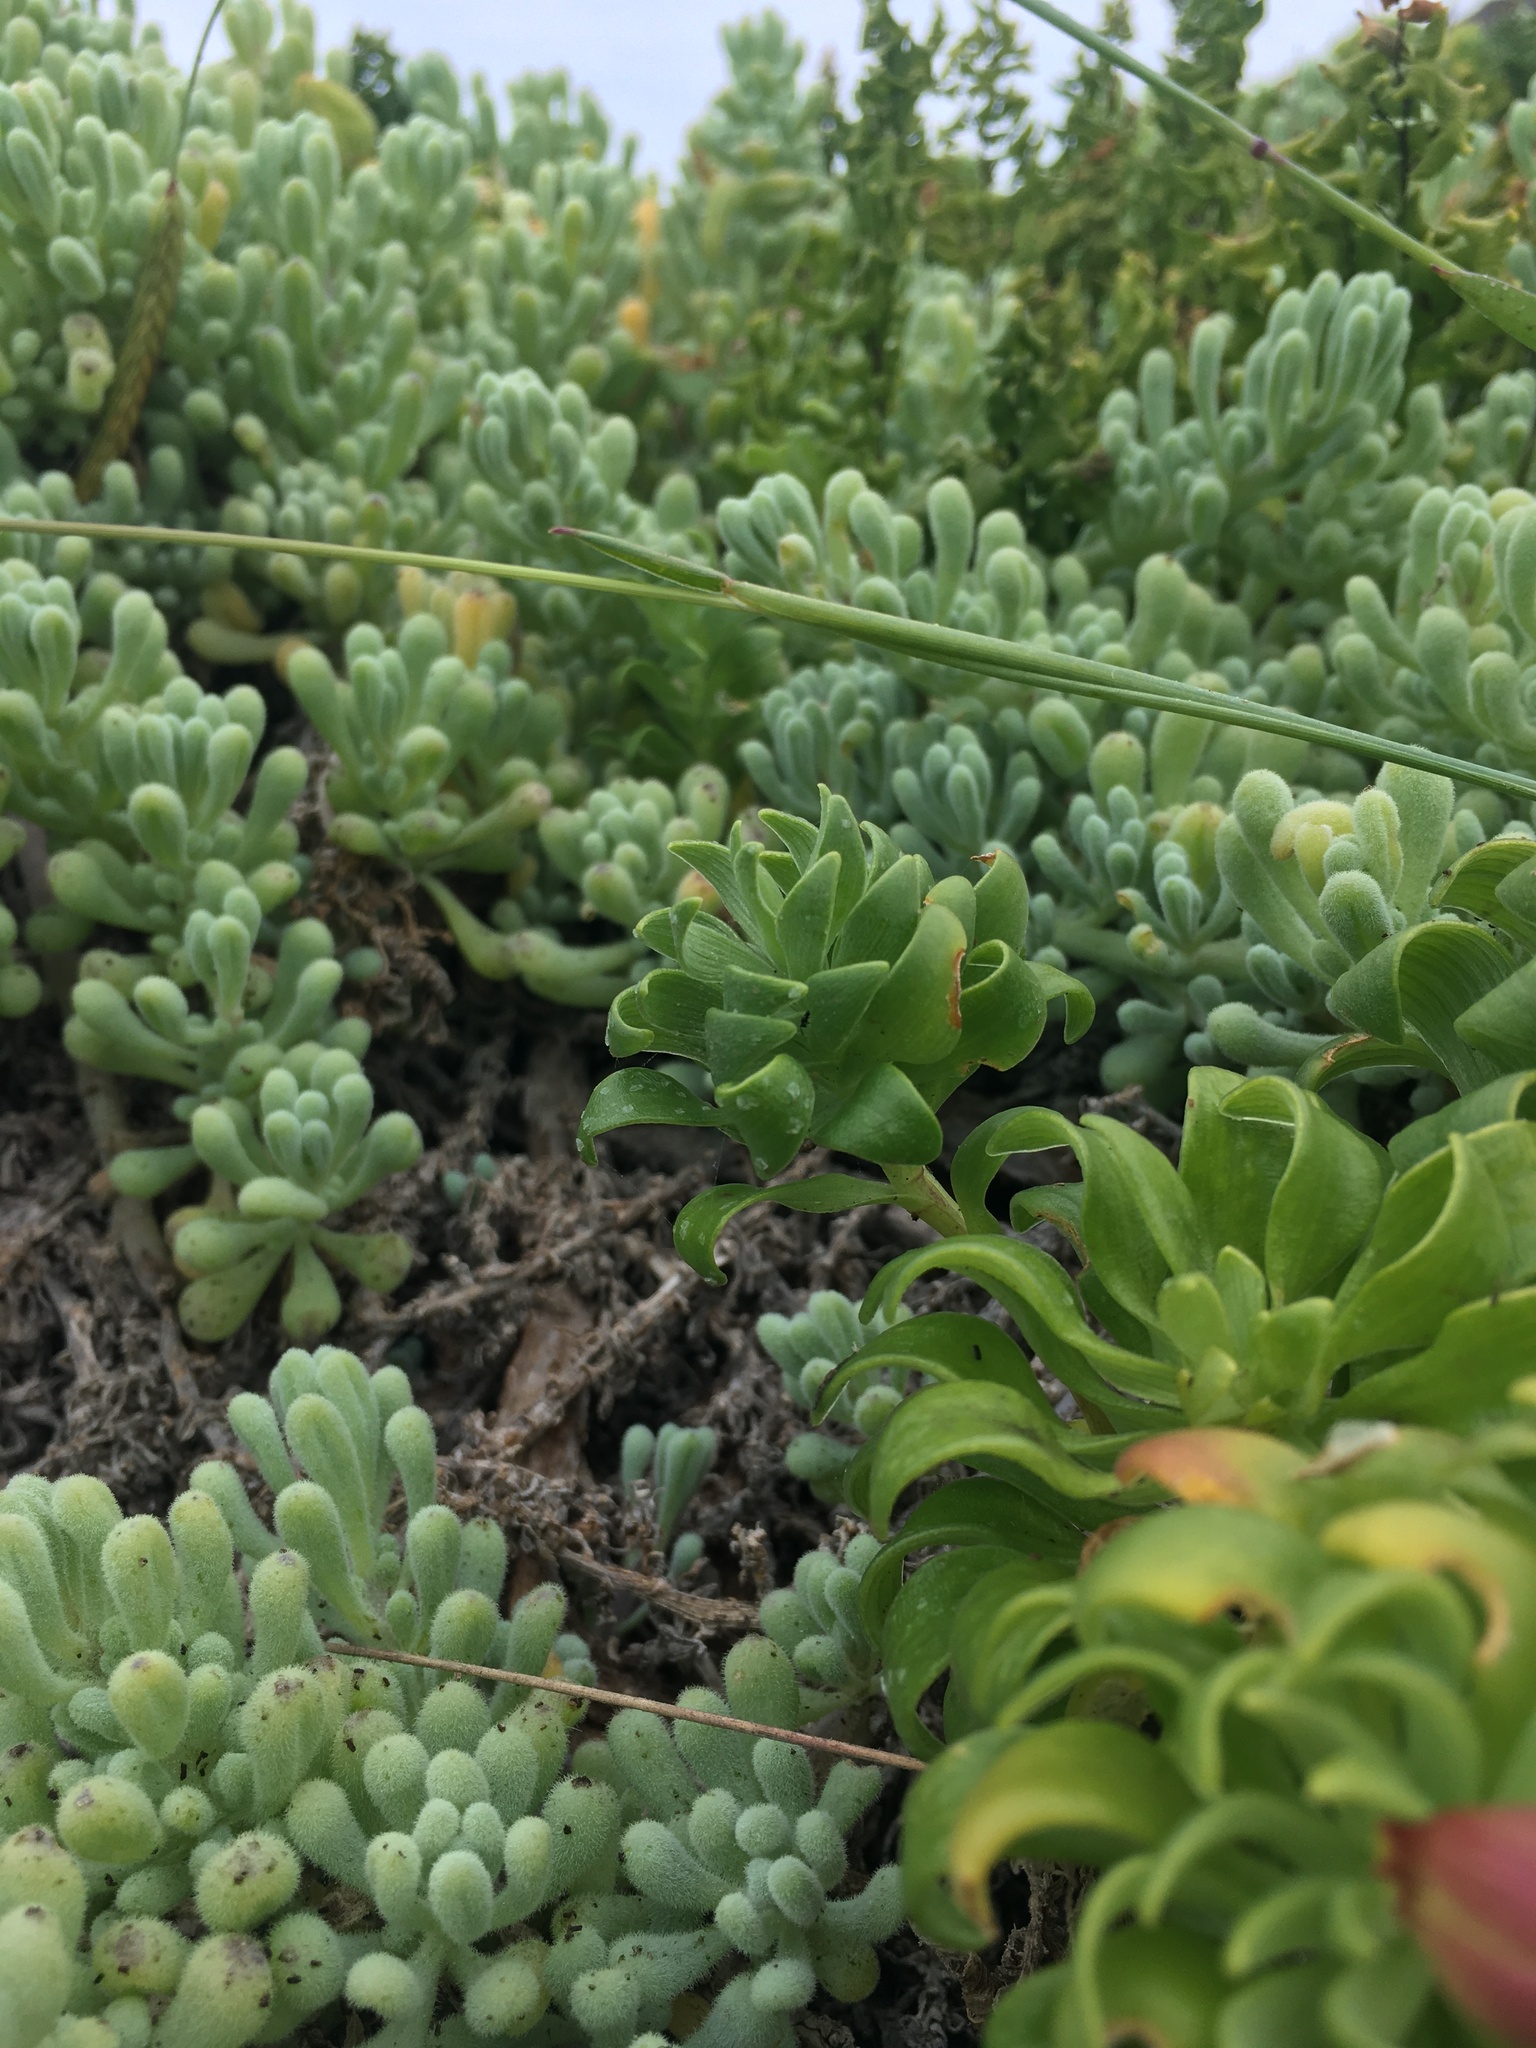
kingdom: Plantae
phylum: Tracheophyta
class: Magnoliopsida
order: Solanales
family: Solanaceae
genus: Nolana
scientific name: Nolana crassulifolia
